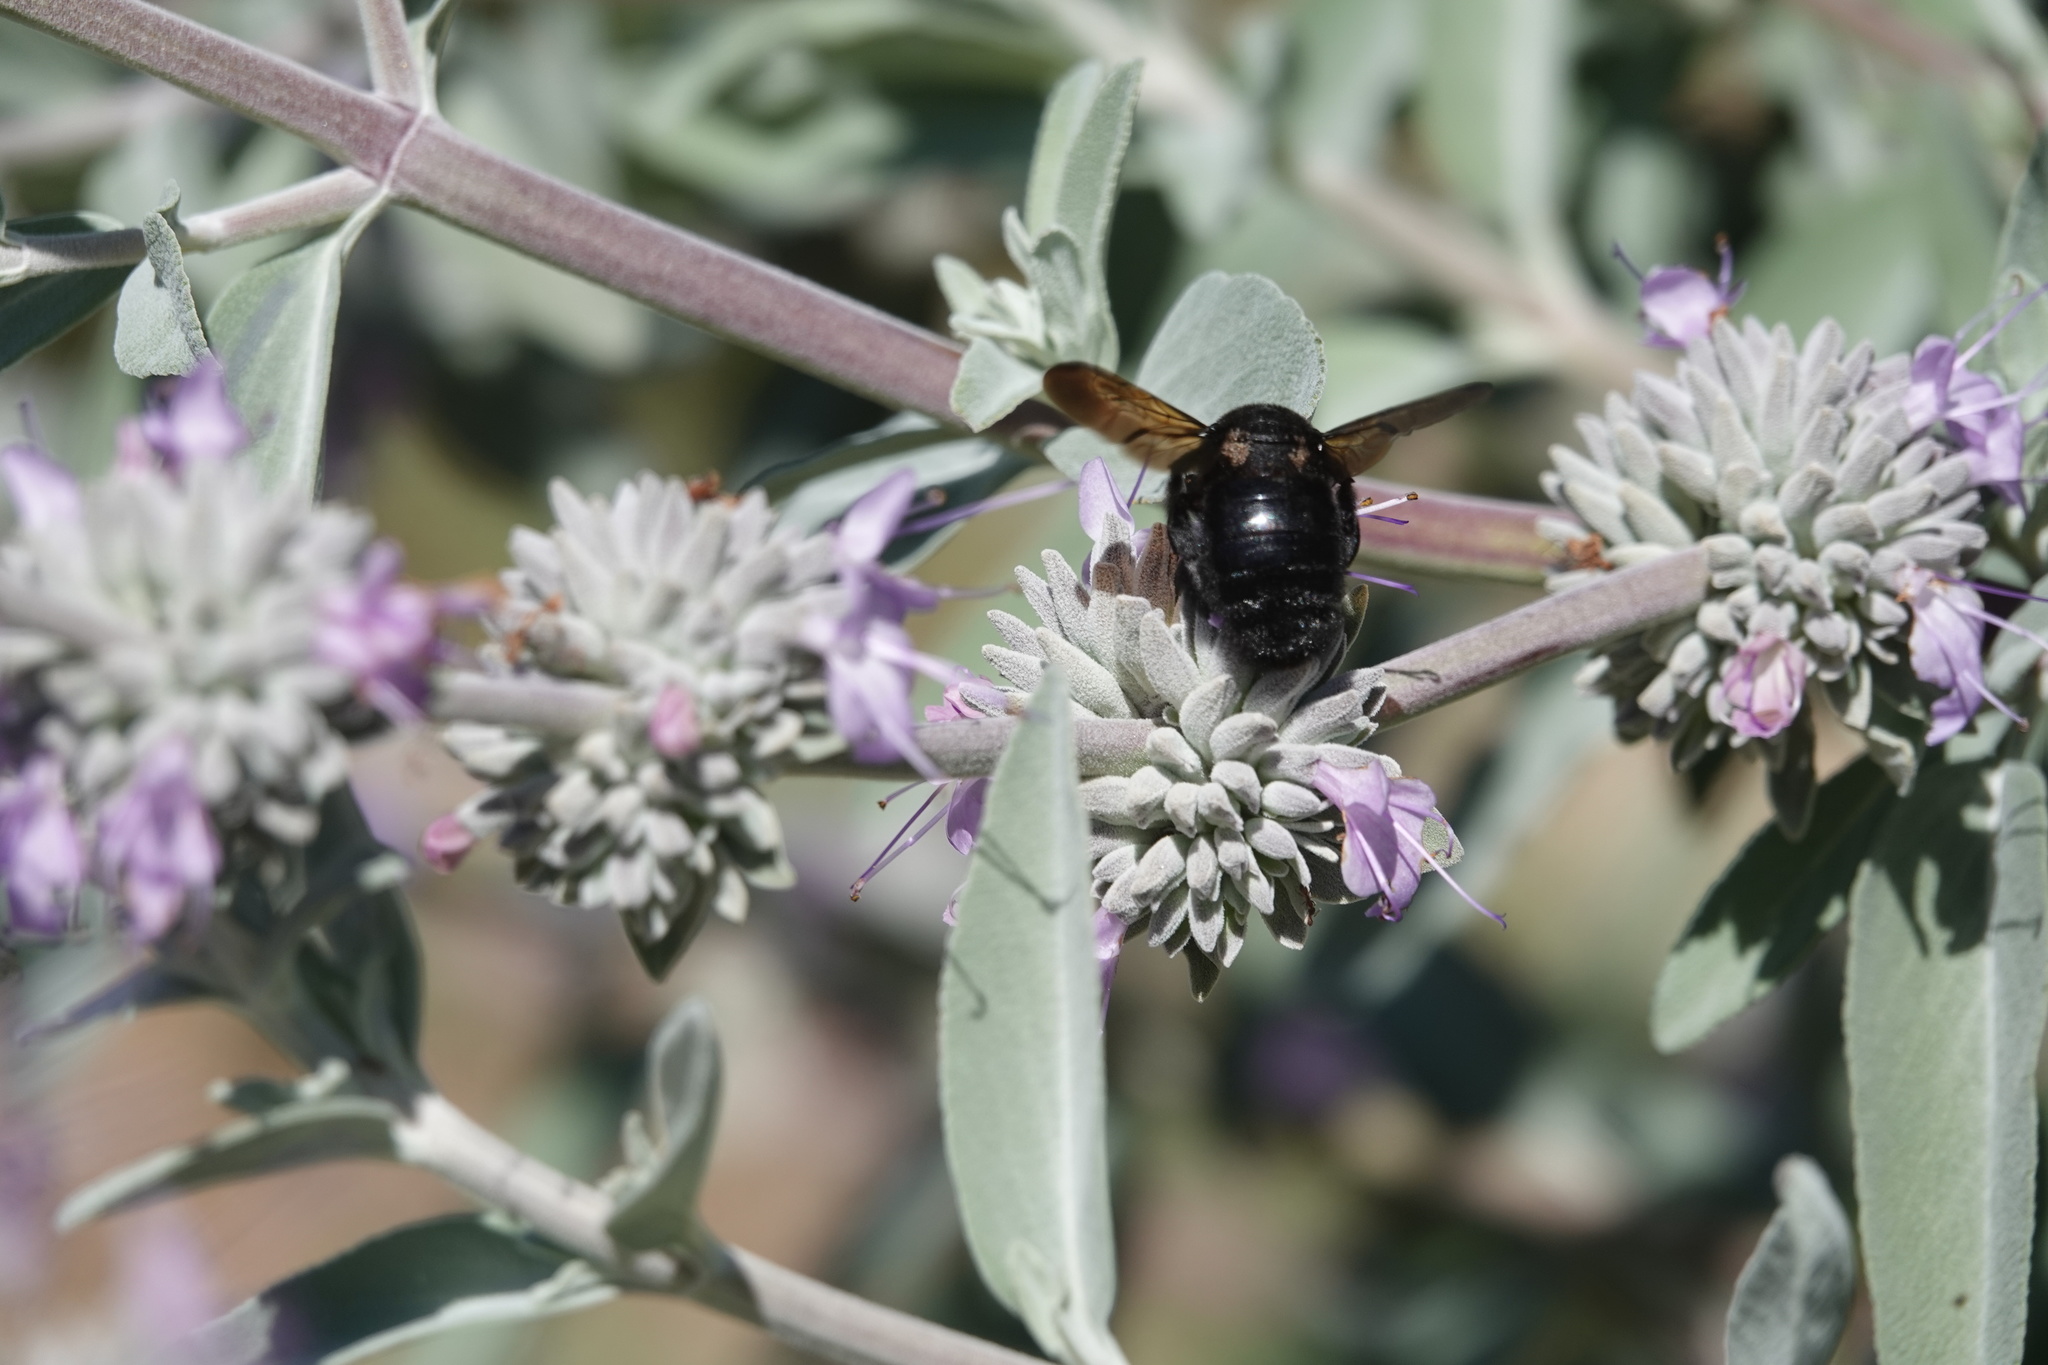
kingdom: Animalia
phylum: Arthropoda
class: Insecta
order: Hymenoptera
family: Apidae
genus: Xylocopa
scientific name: Xylocopa sonorina
